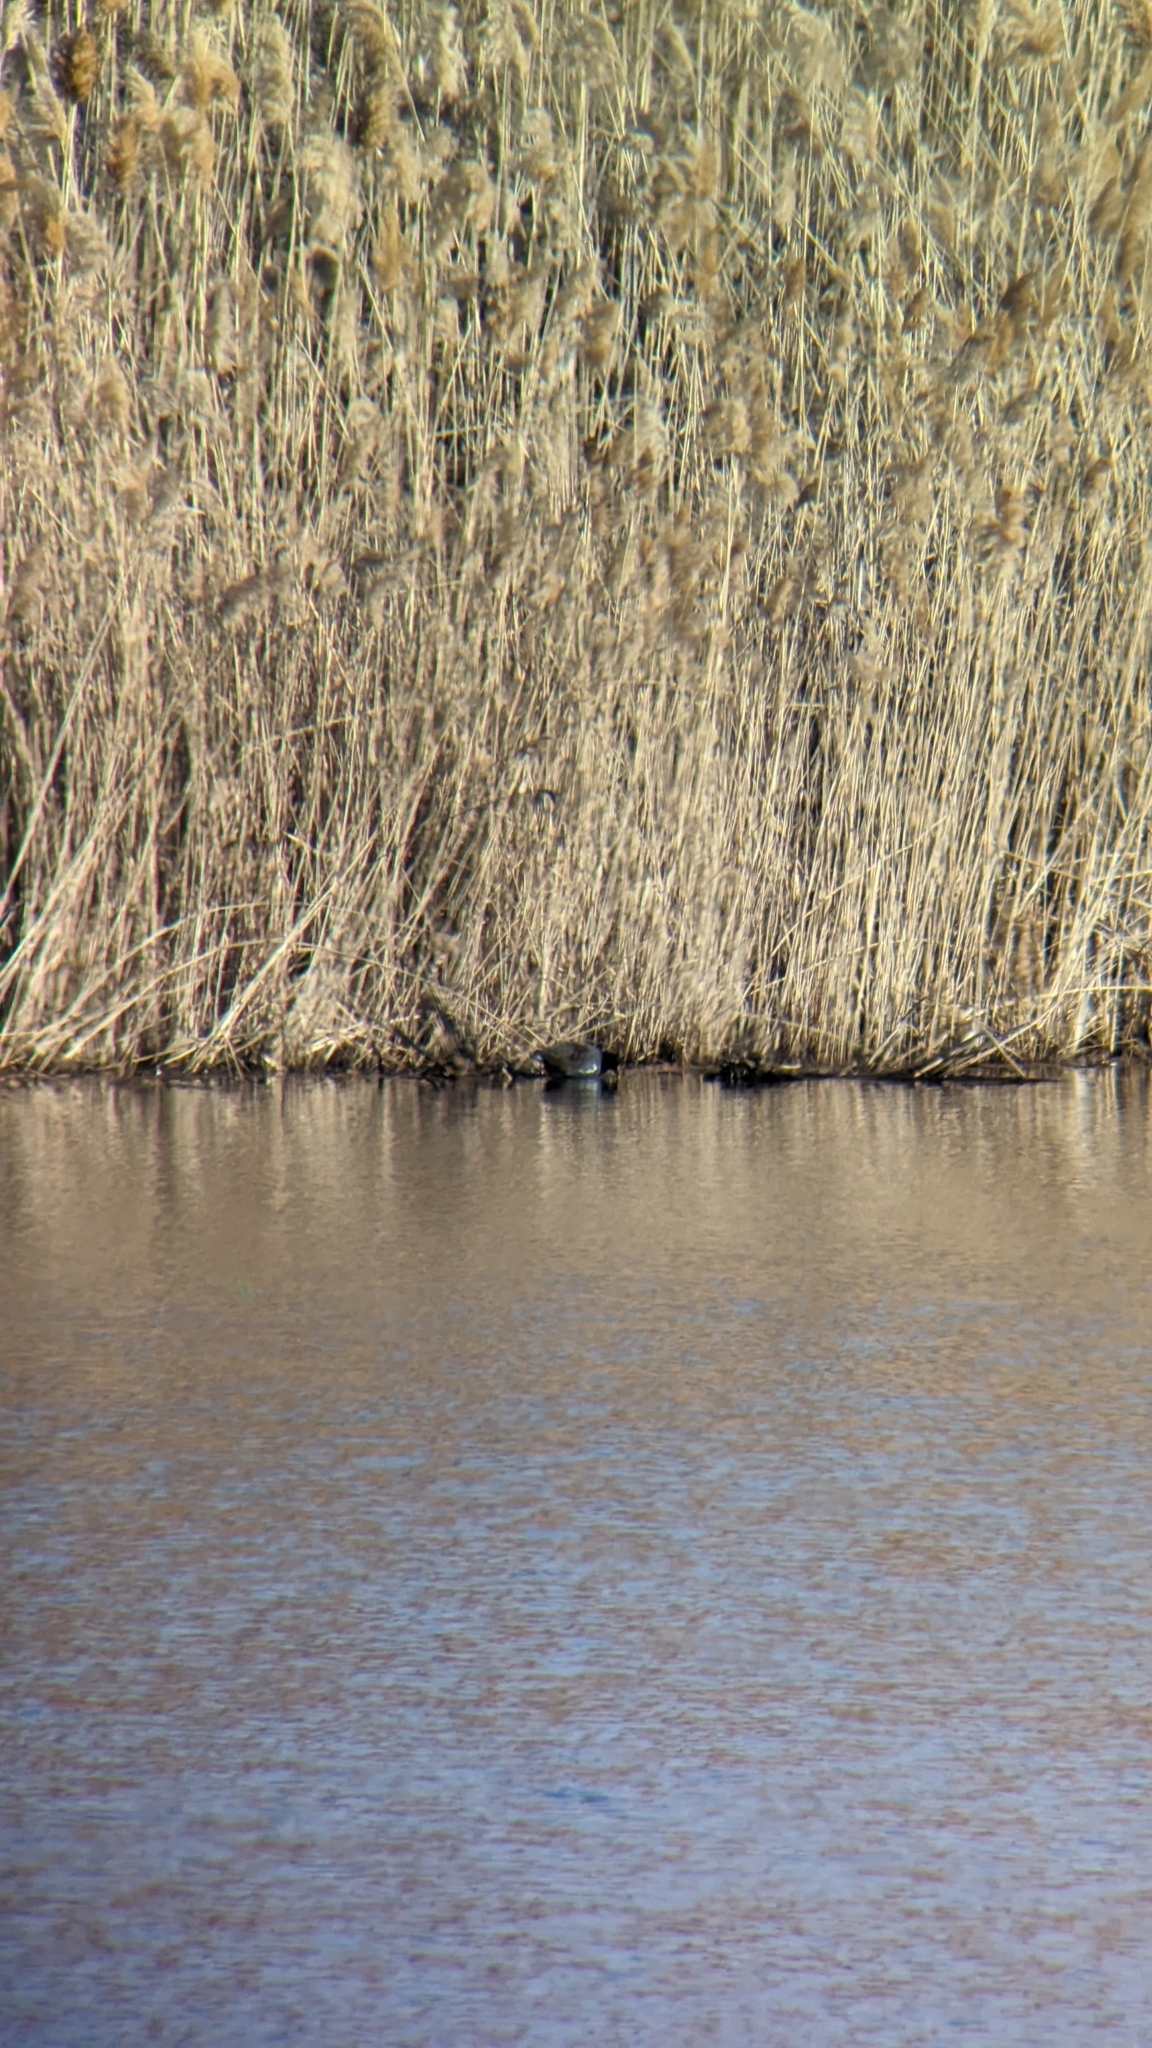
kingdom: Animalia
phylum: Chordata
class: Aves
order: Gruiformes
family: Rallidae
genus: Gallinula
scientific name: Gallinula chloropus
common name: Common moorhen
